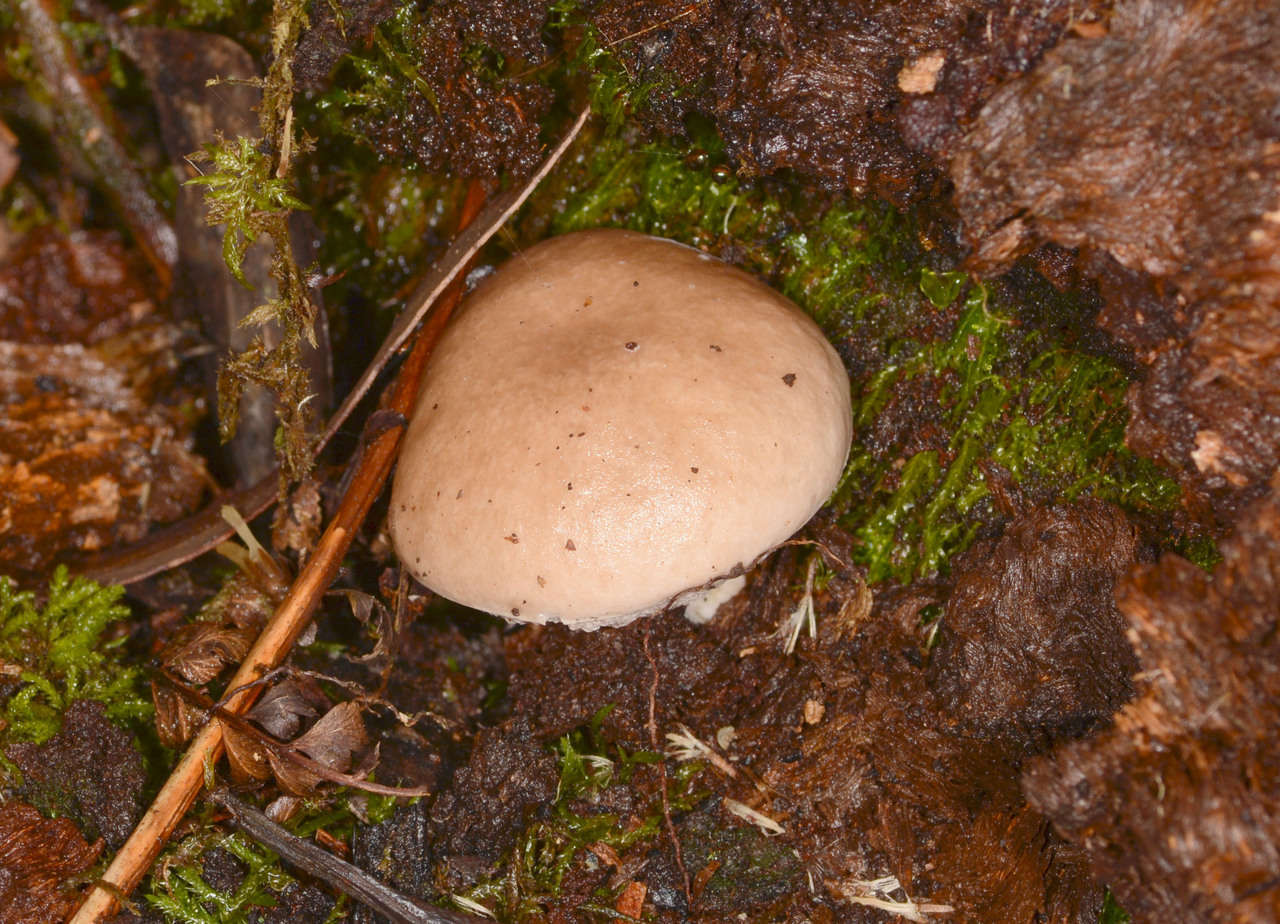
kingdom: Fungi
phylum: Basidiomycota
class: Agaricomycetes
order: Boletales
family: Boletaceae
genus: Fistulinella
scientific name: Fistulinella mollis
